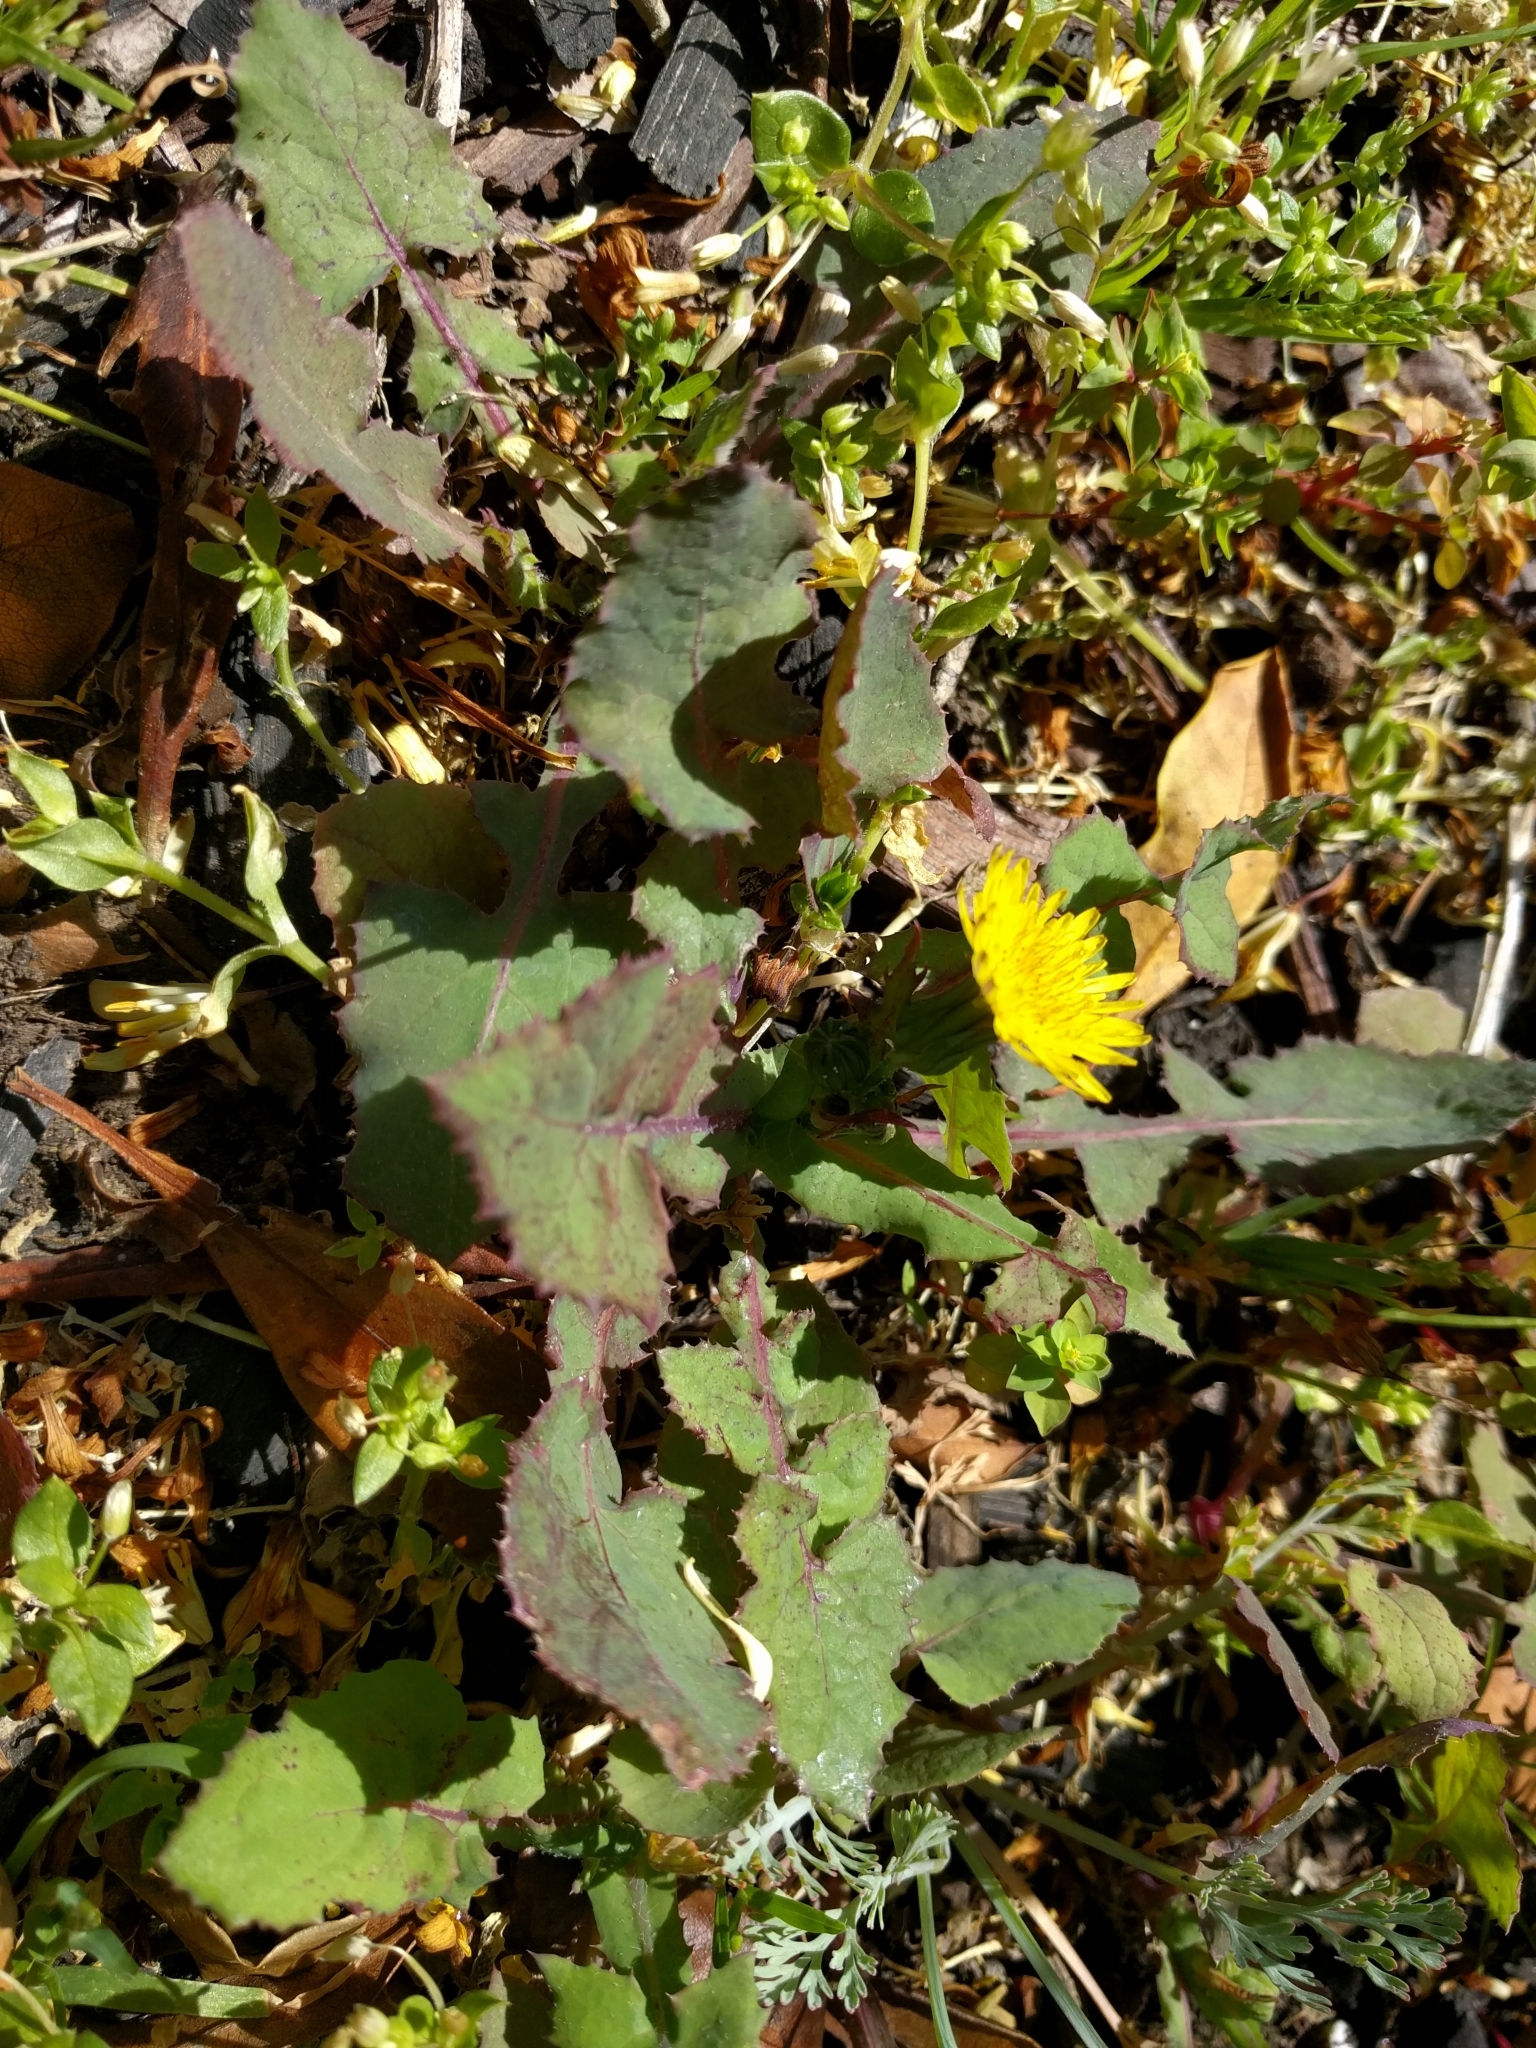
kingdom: Plantae
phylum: Tracheophyta
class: Magnoliopsida
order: Asterales
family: Asteraceae
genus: Sonchus
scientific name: Sonchus oleraceus
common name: Common sowthistle
